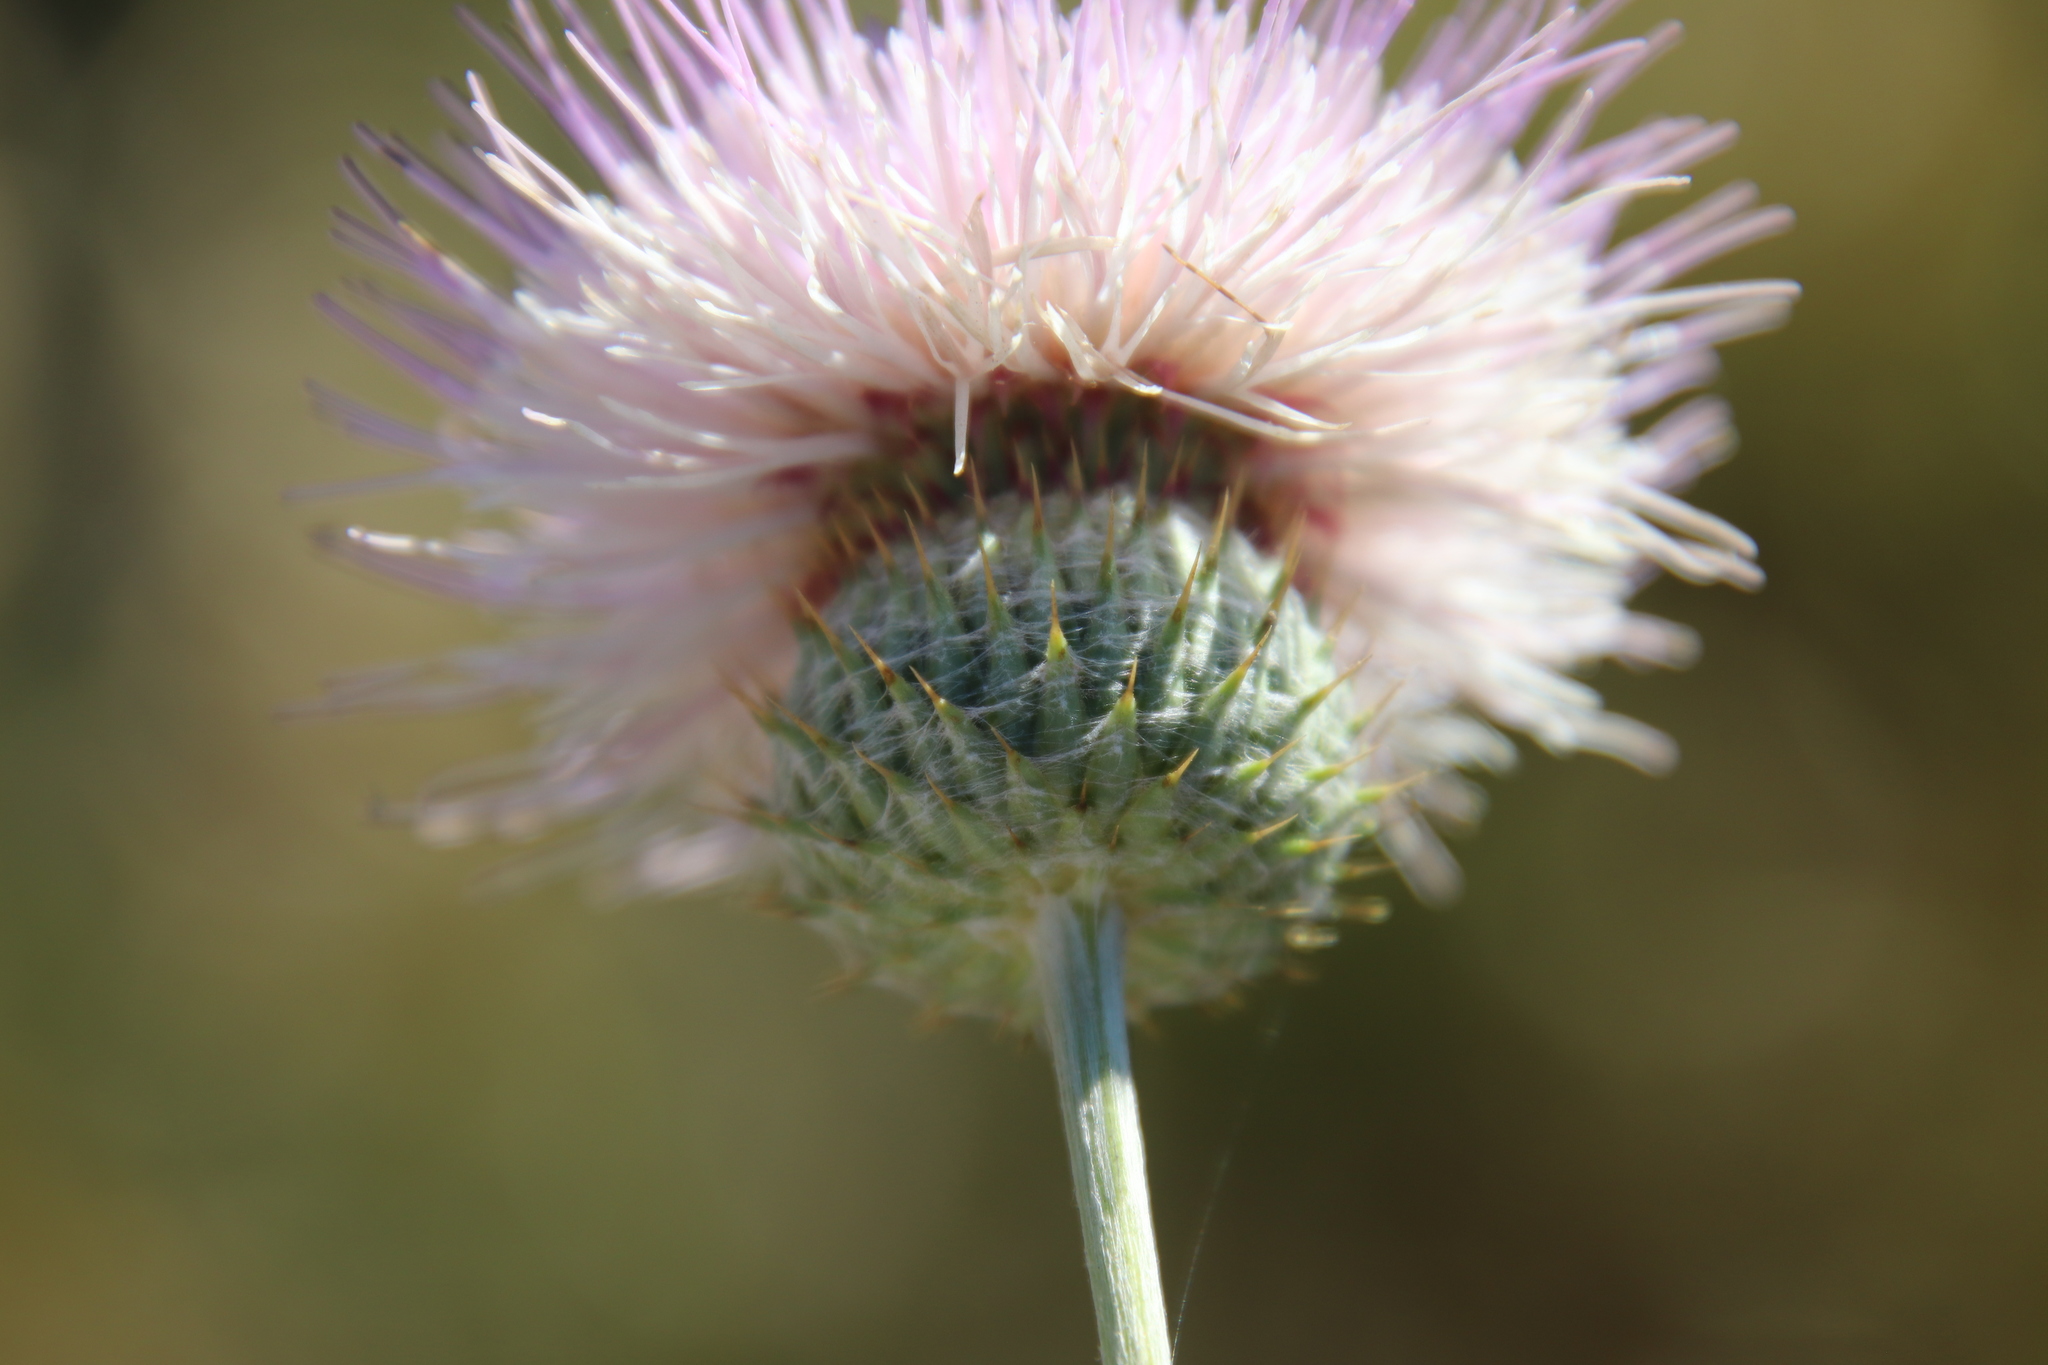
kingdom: Plantae
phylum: Tracheophyta
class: Magnoliopsida
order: Asterales
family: Asteraceae
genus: Cirsium
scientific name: Cirsium occidentale
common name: Western thistle
